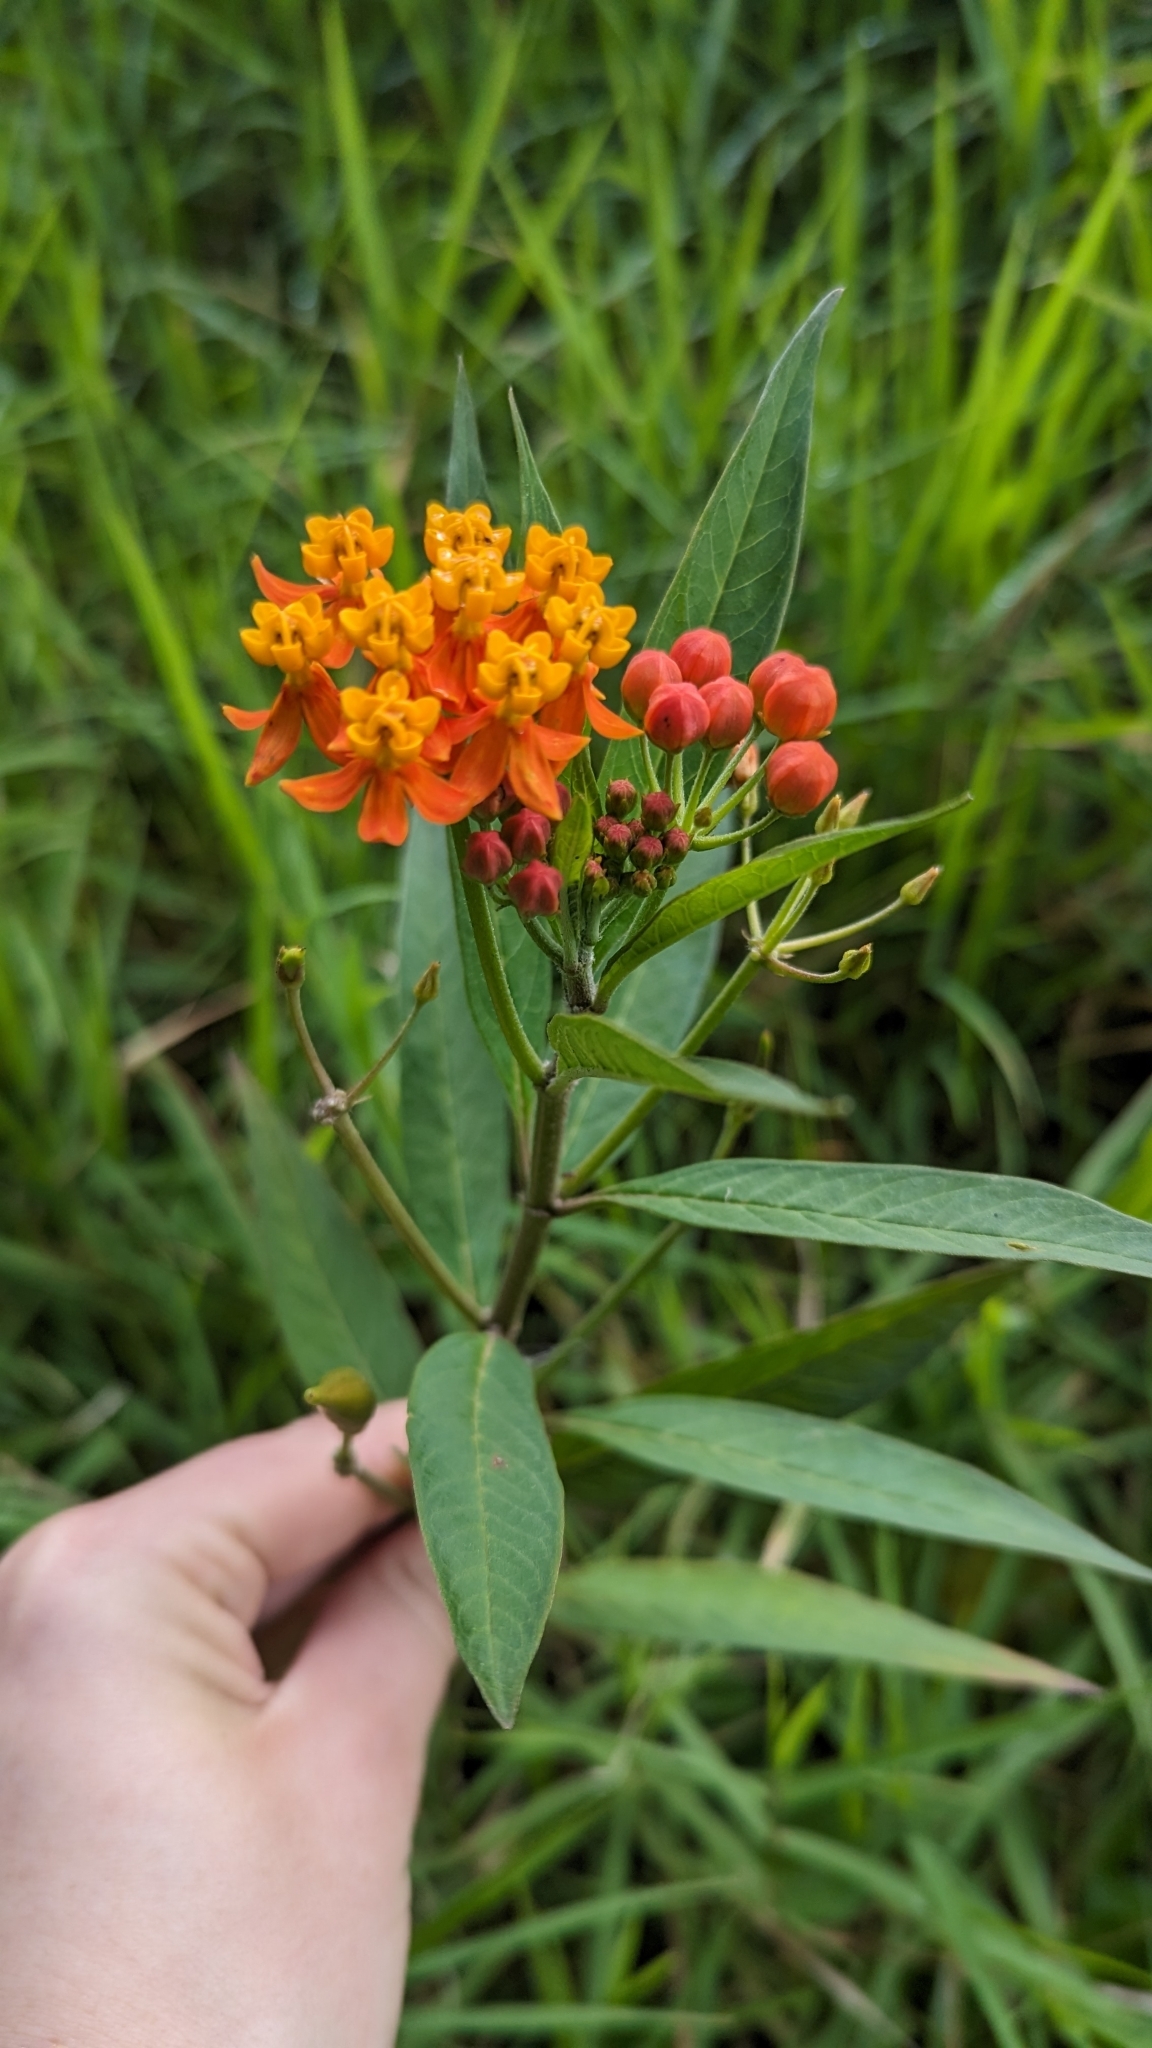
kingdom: Plantae
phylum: Tracheophyta
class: Magnoliopsida
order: Gentianales
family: Apocynaceae
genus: Asclepias
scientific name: Asclepias curassavica
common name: Bloodflower
